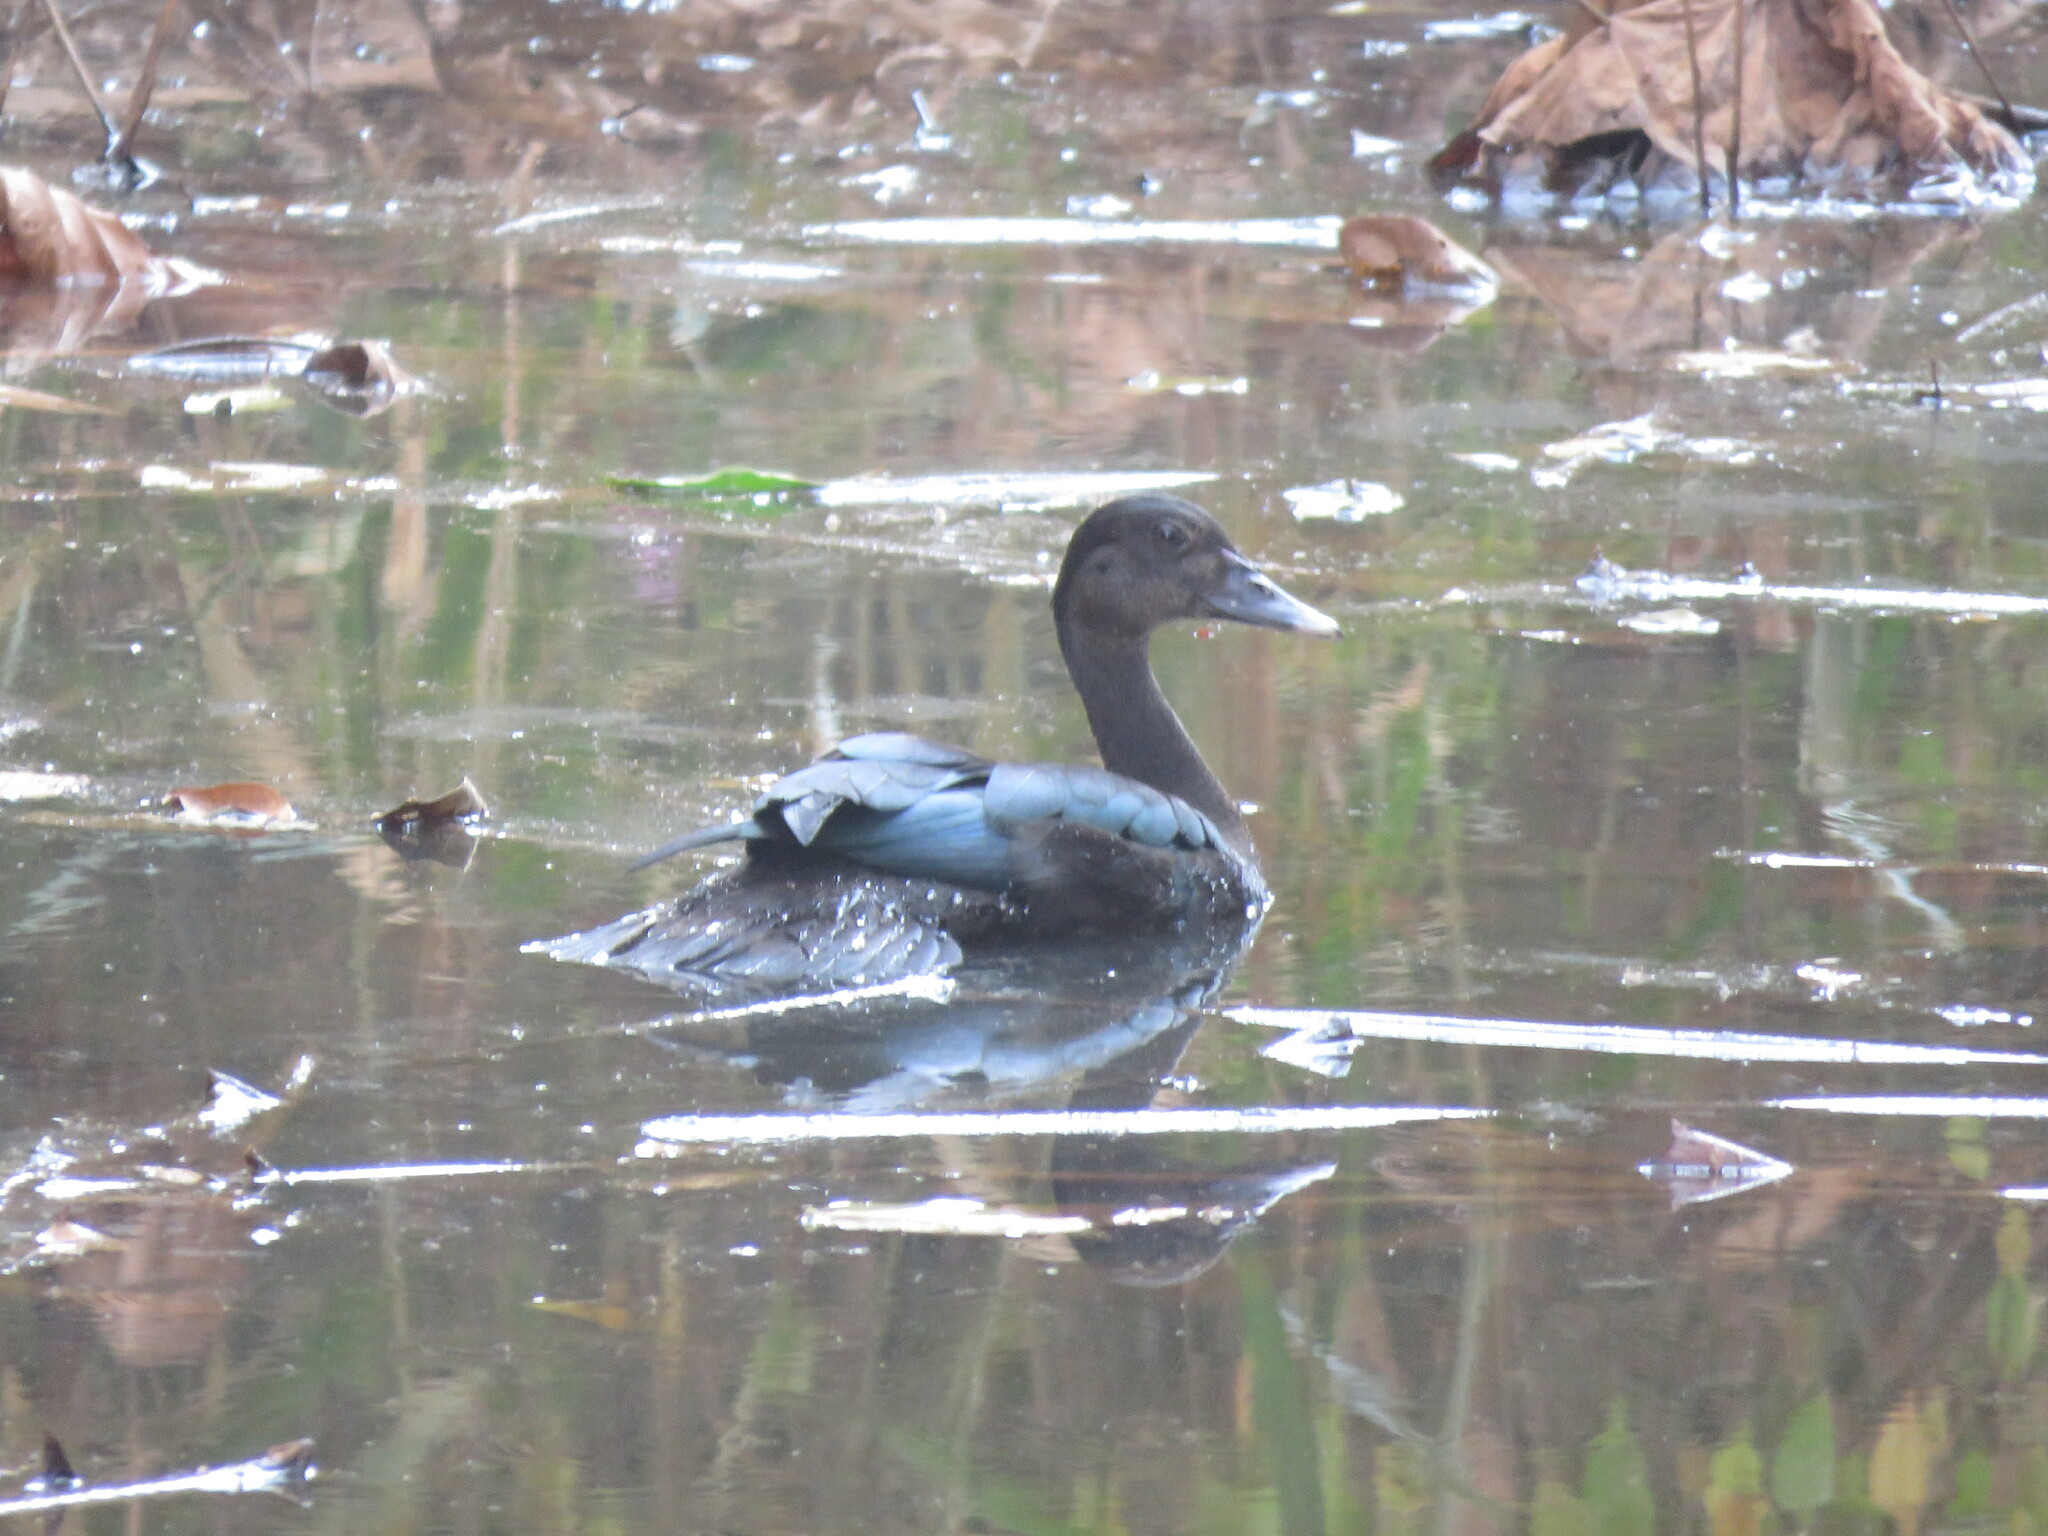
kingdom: Animalia
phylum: Chordata
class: Aves
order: Anseriformes
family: Anatidae
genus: Cairina
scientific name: Cairina moschata
